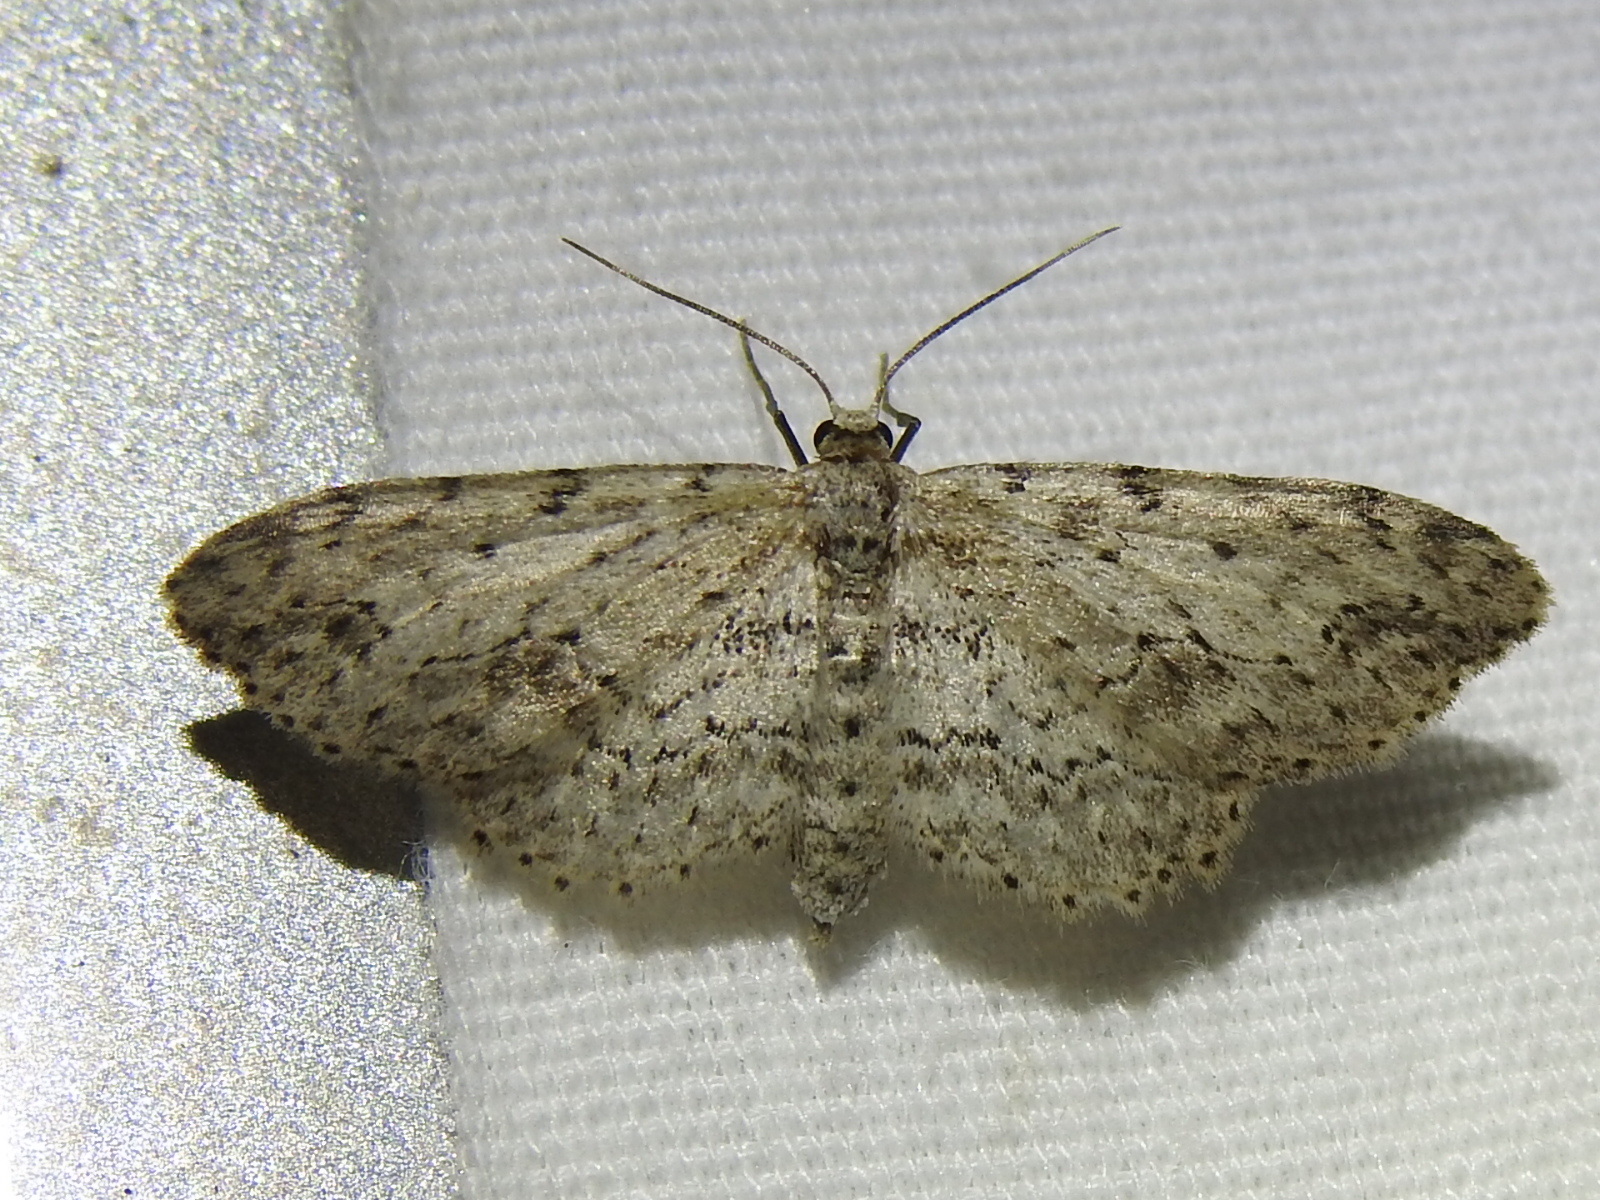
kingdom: Animalia
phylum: Arthropoda
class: Insecta
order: Lepidoptera
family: Geometridae
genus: Pimaphera
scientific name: Pimaphera sparsaria
